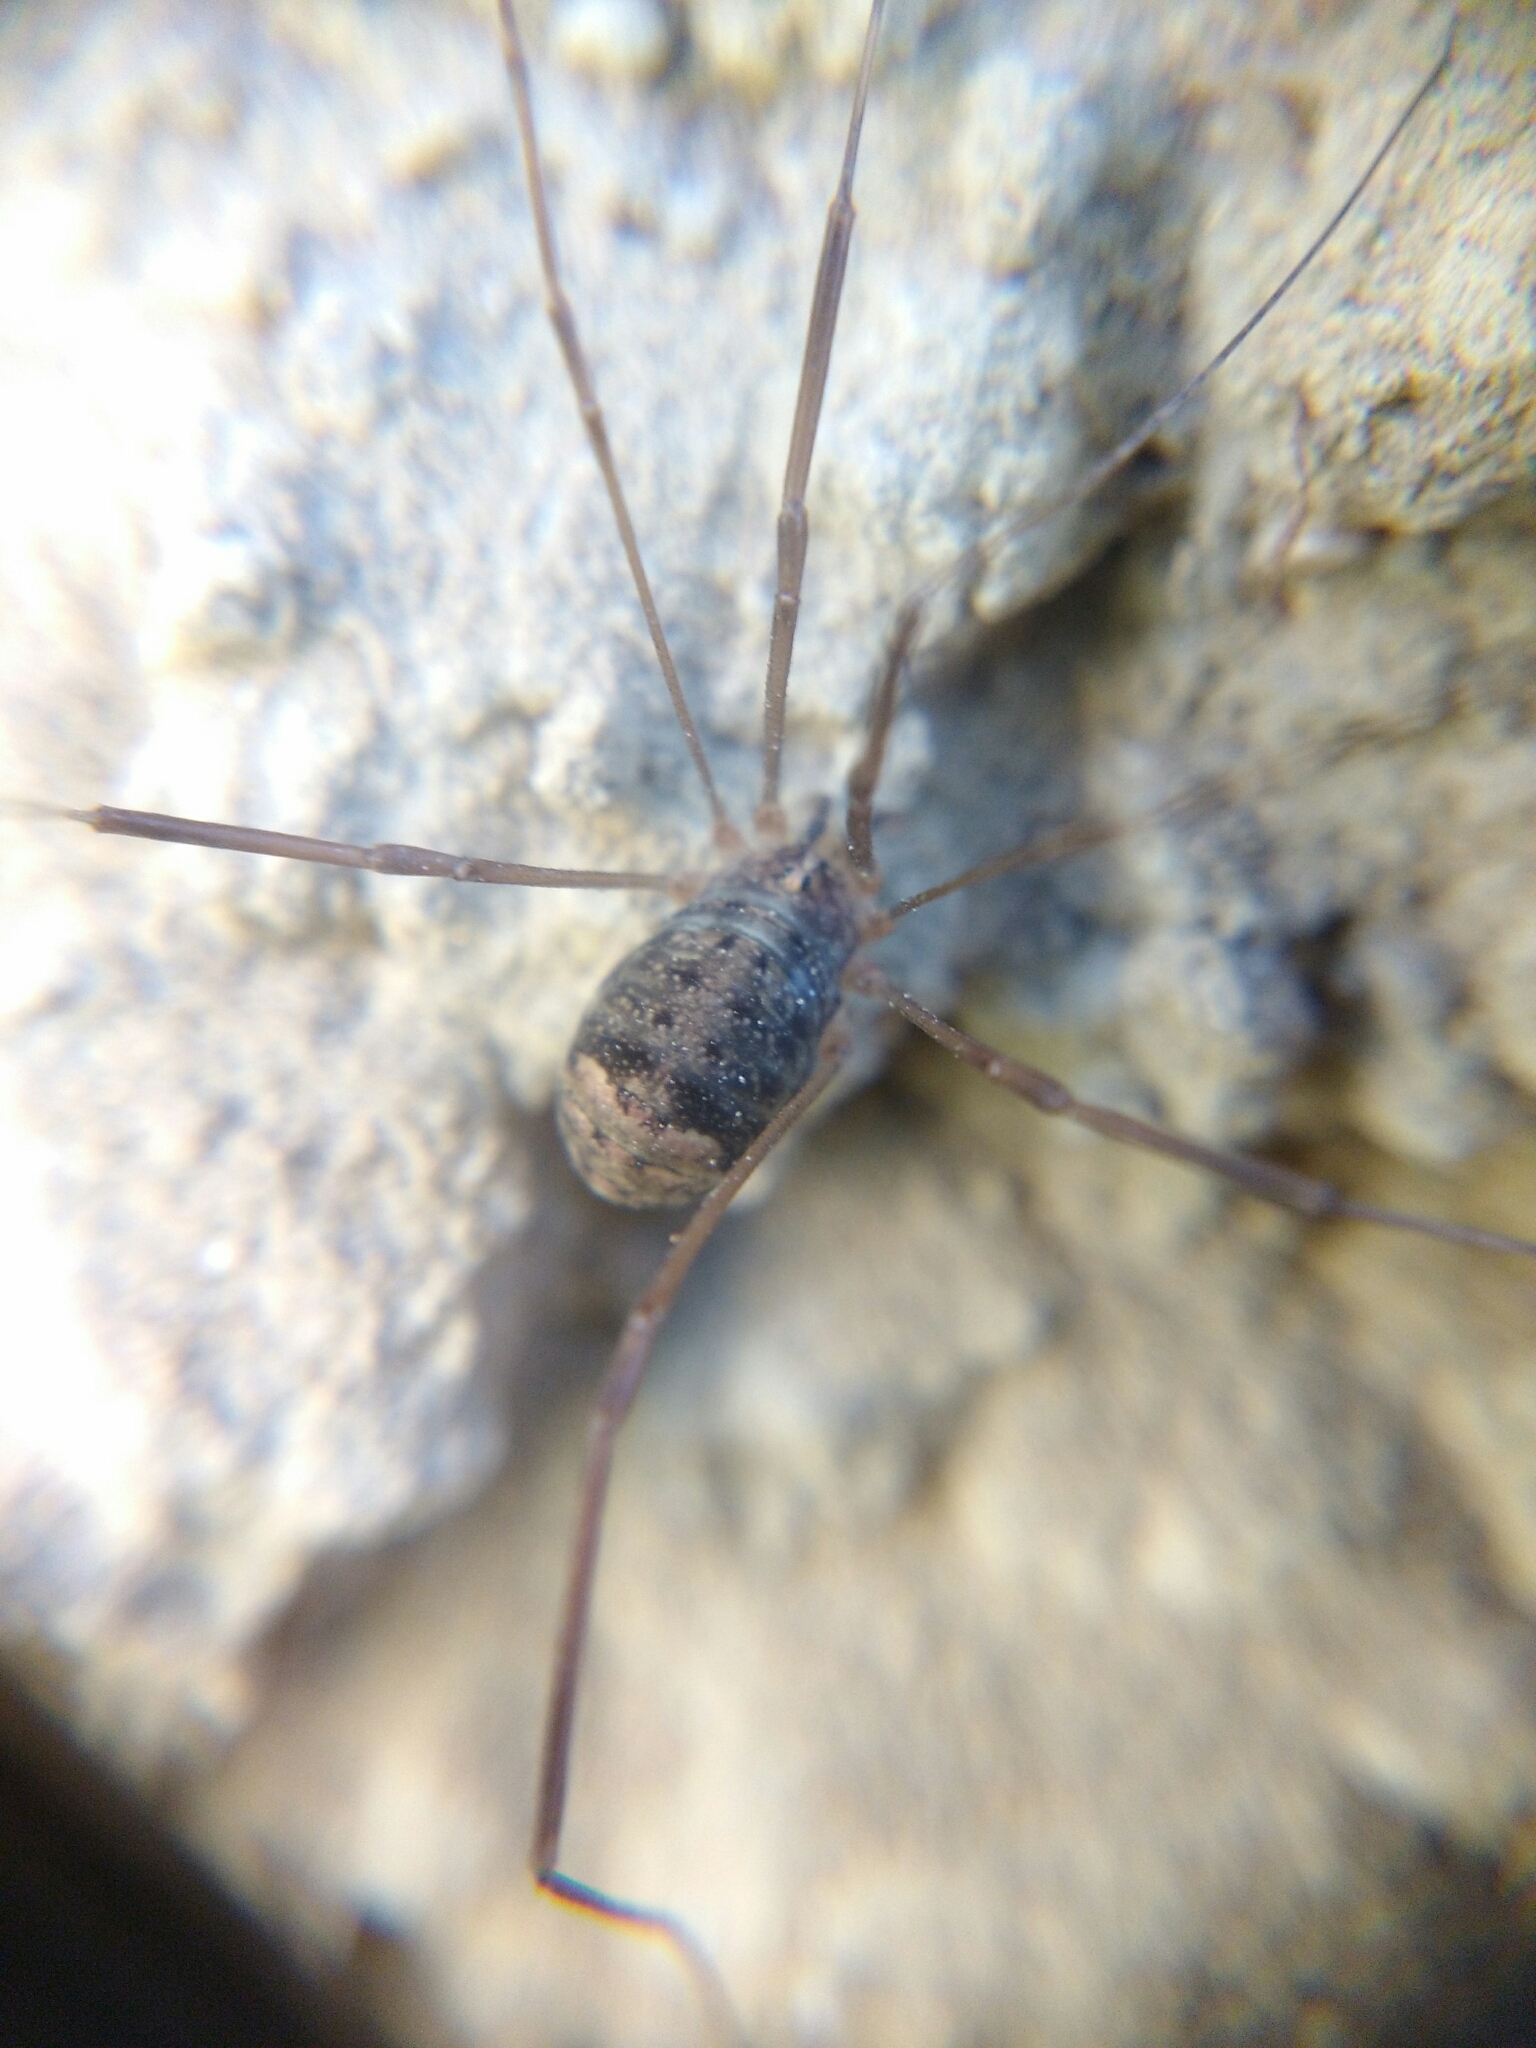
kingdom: Animalia
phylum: Arthropoda
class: Arachnida
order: Opiliones
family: Sclerosomatidae
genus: Nelima
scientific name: Nelima sempronii
